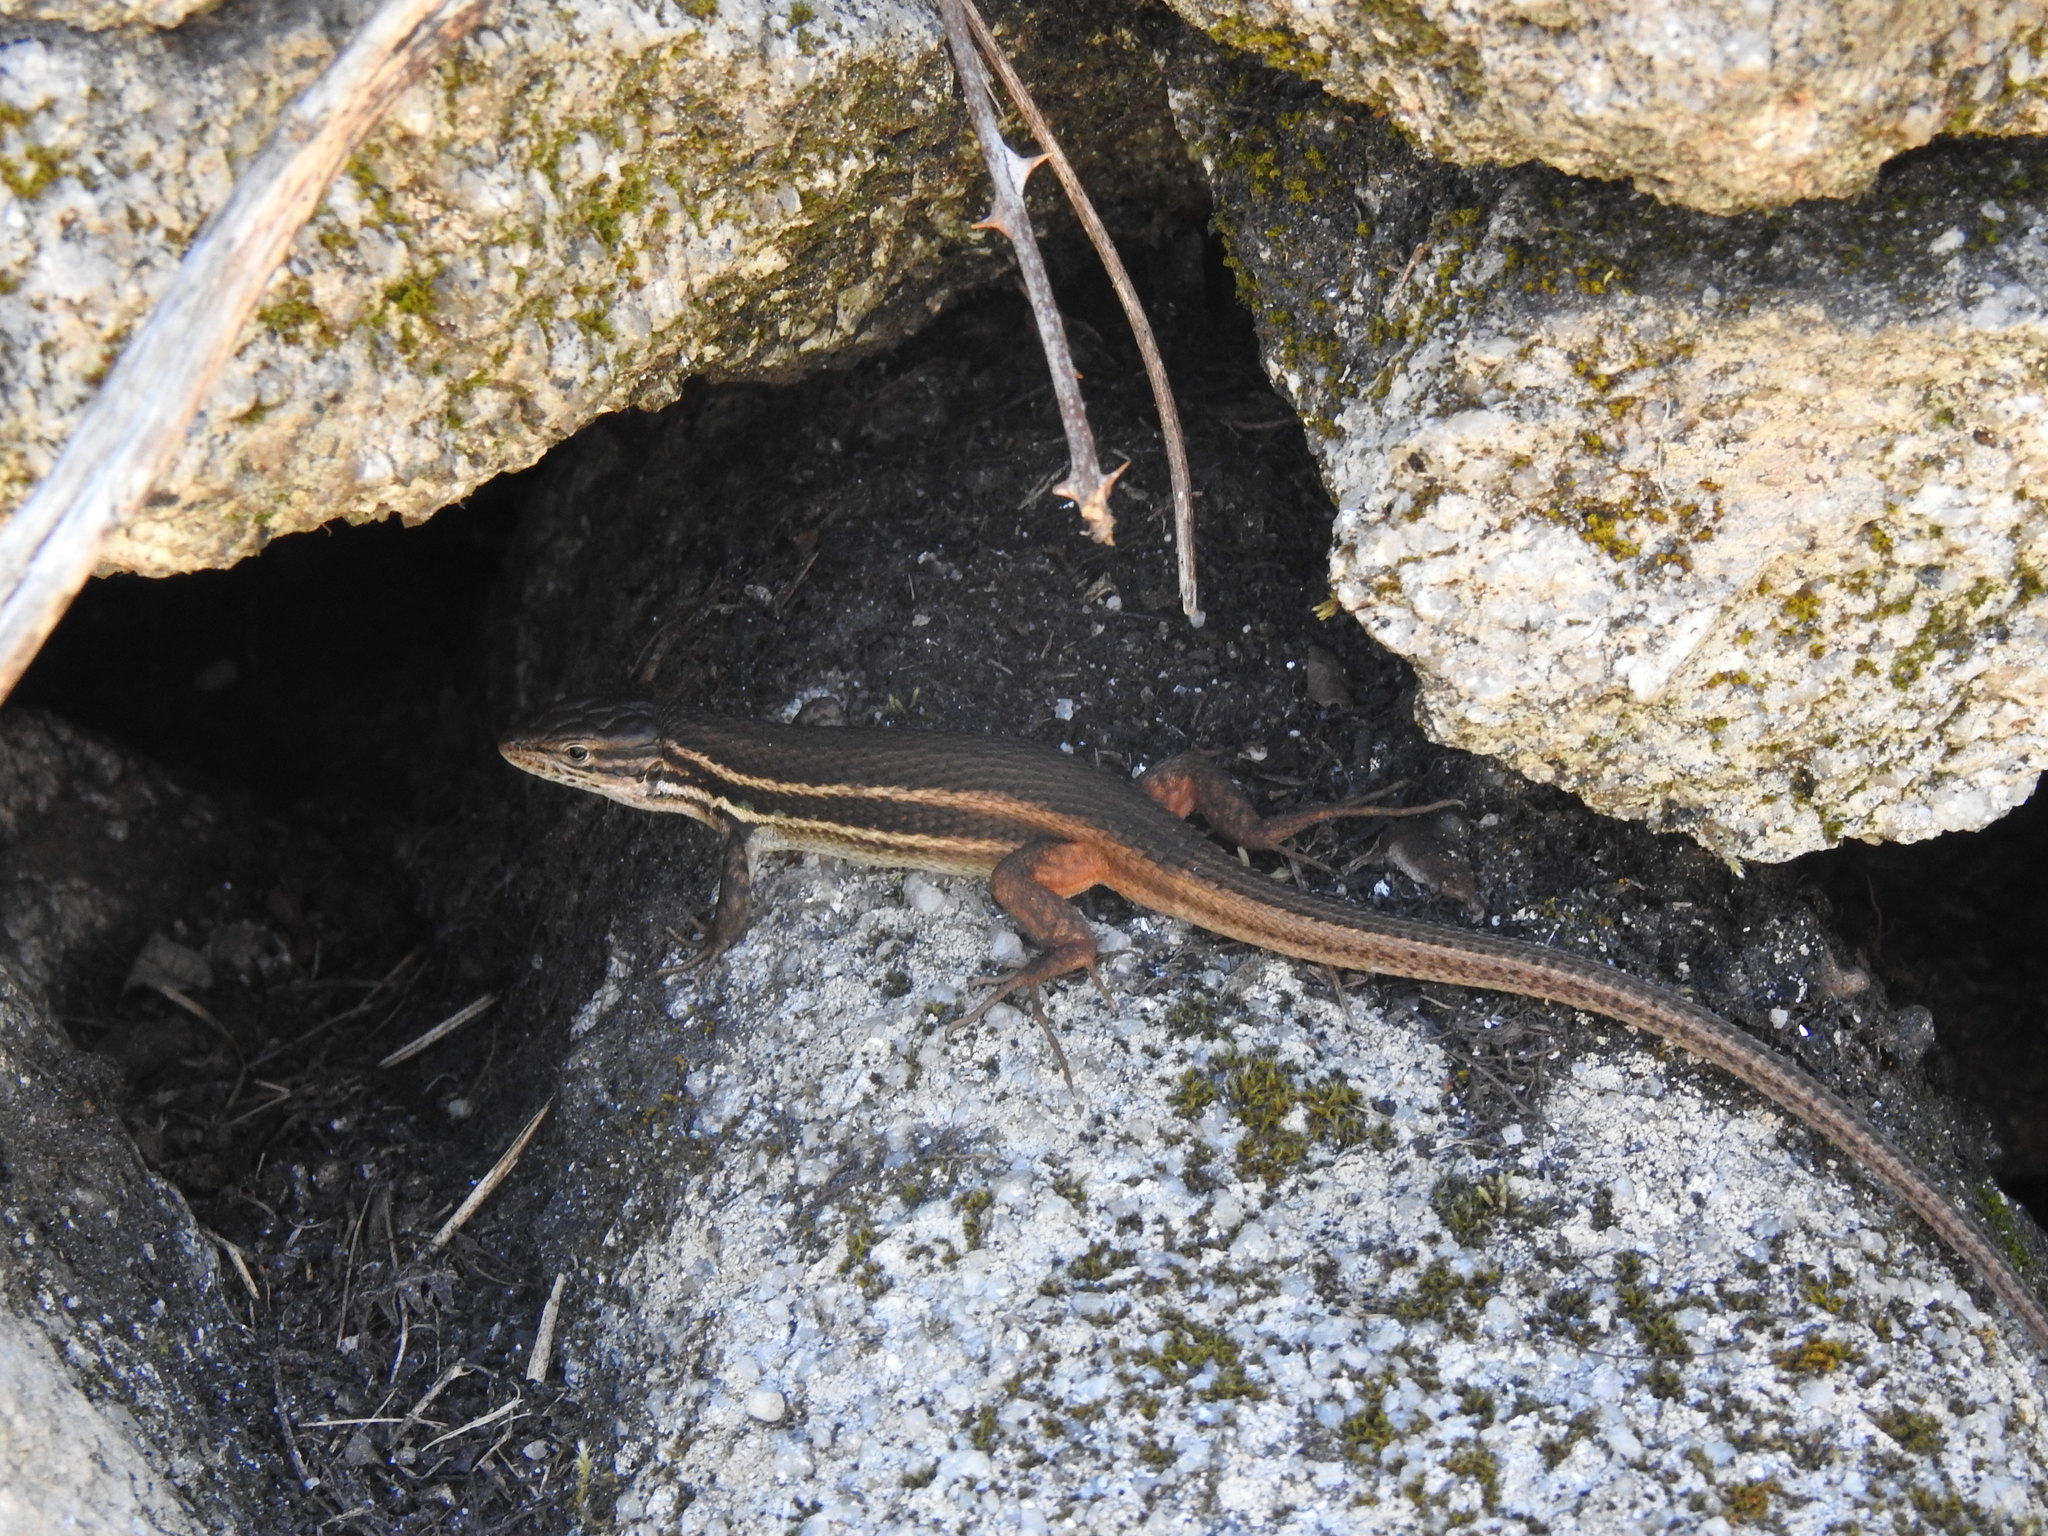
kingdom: Animalia
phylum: Chordata
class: Squamata
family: Lacertidae
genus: Psammodromus
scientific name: Psammodromus algirus
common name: Algerian psammodromus
